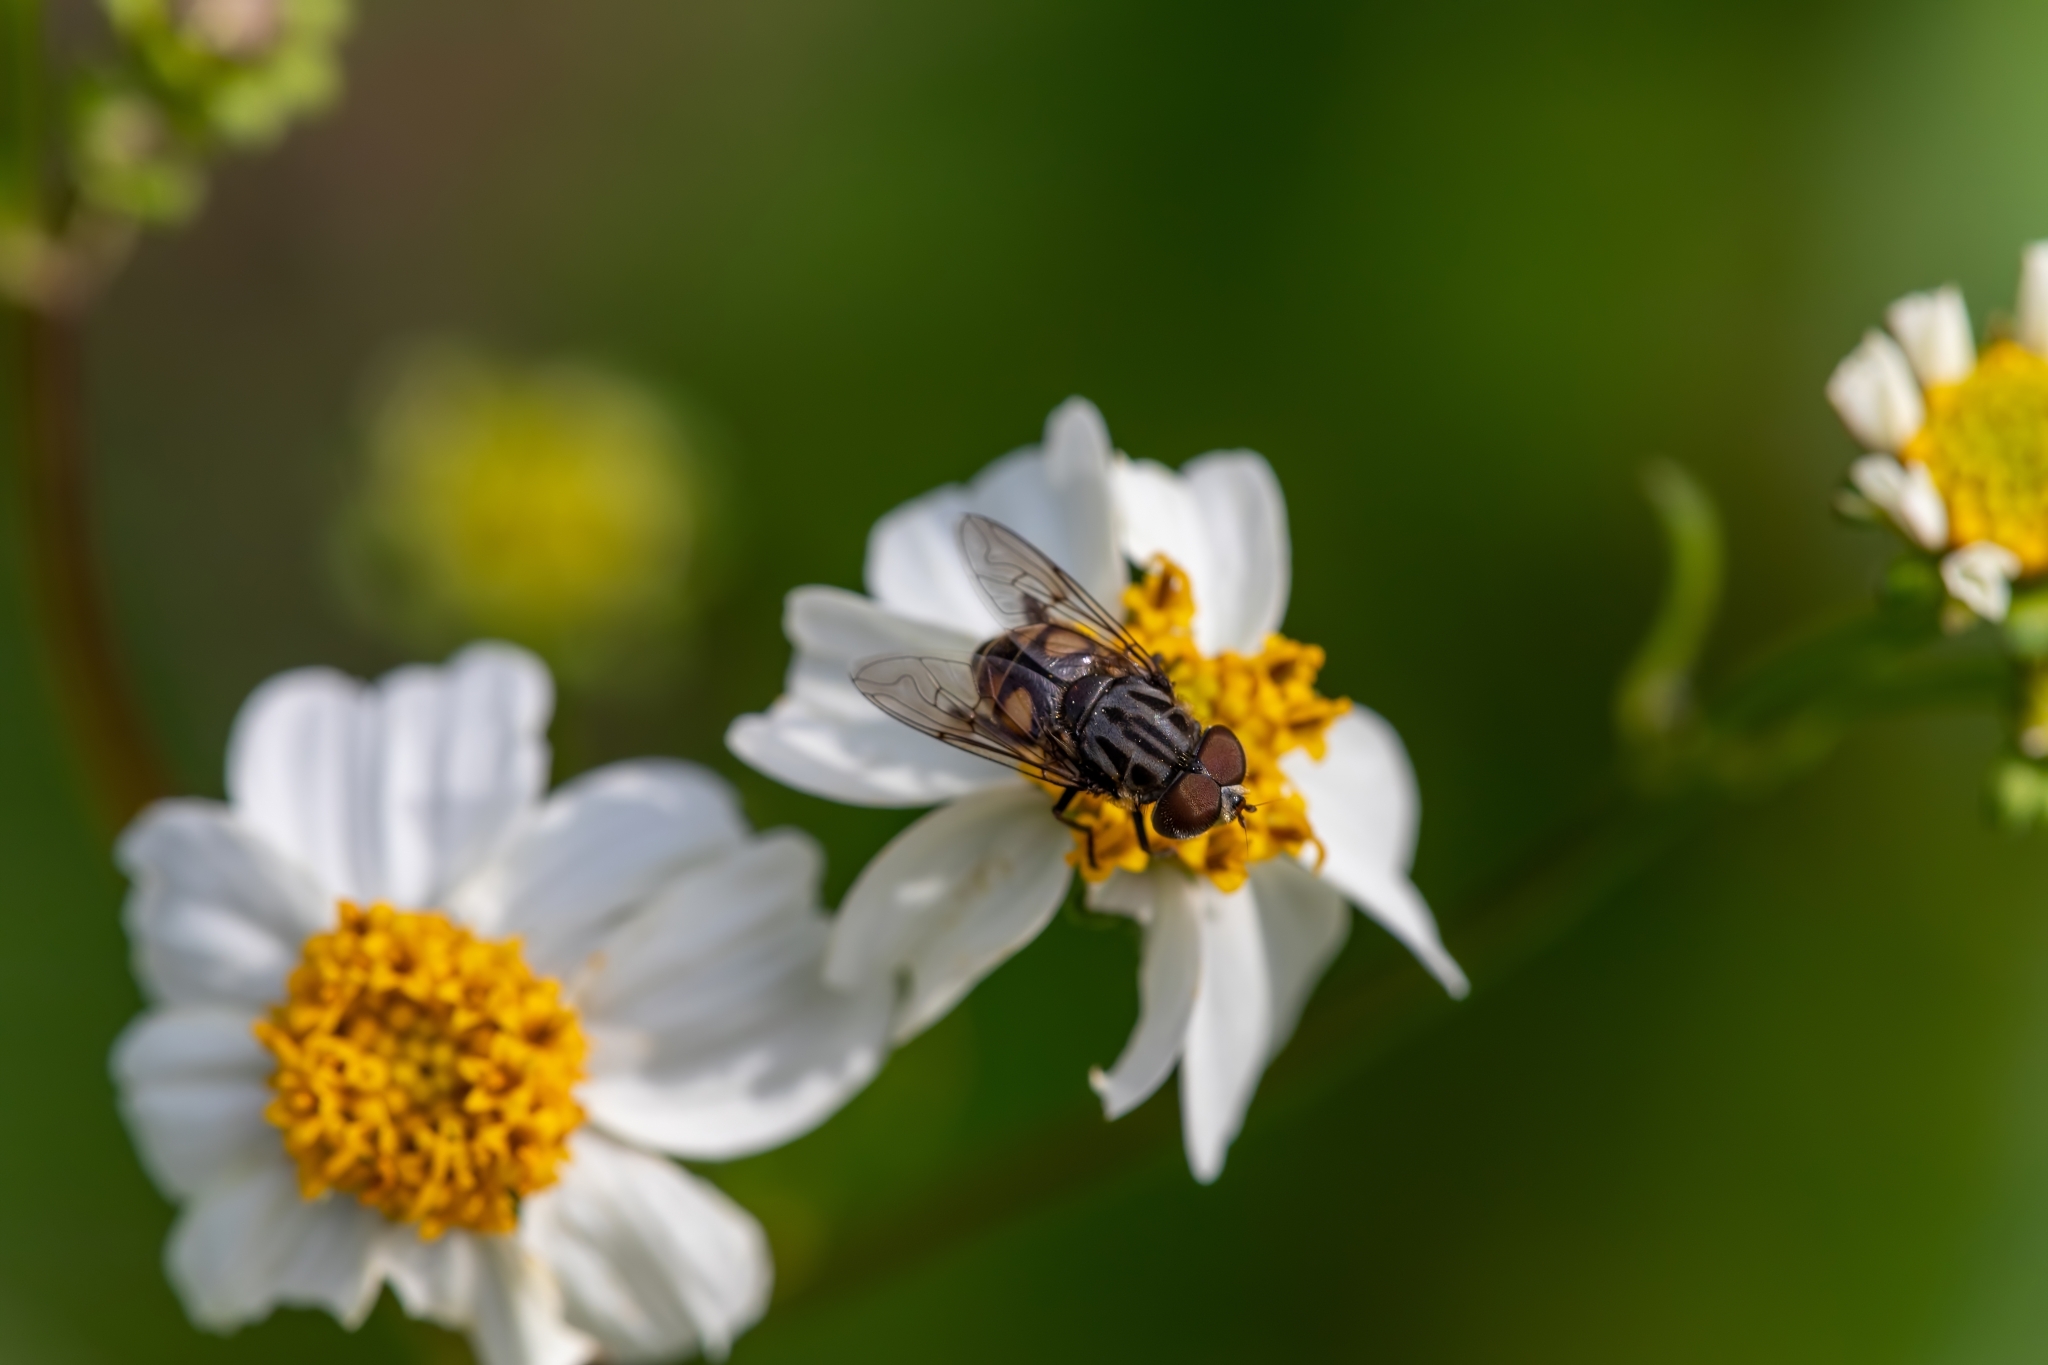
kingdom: Animalia
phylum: Arthropoda
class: Insecta
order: Diptera
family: Syrphidae
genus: Palpada
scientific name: Palpada furcata
